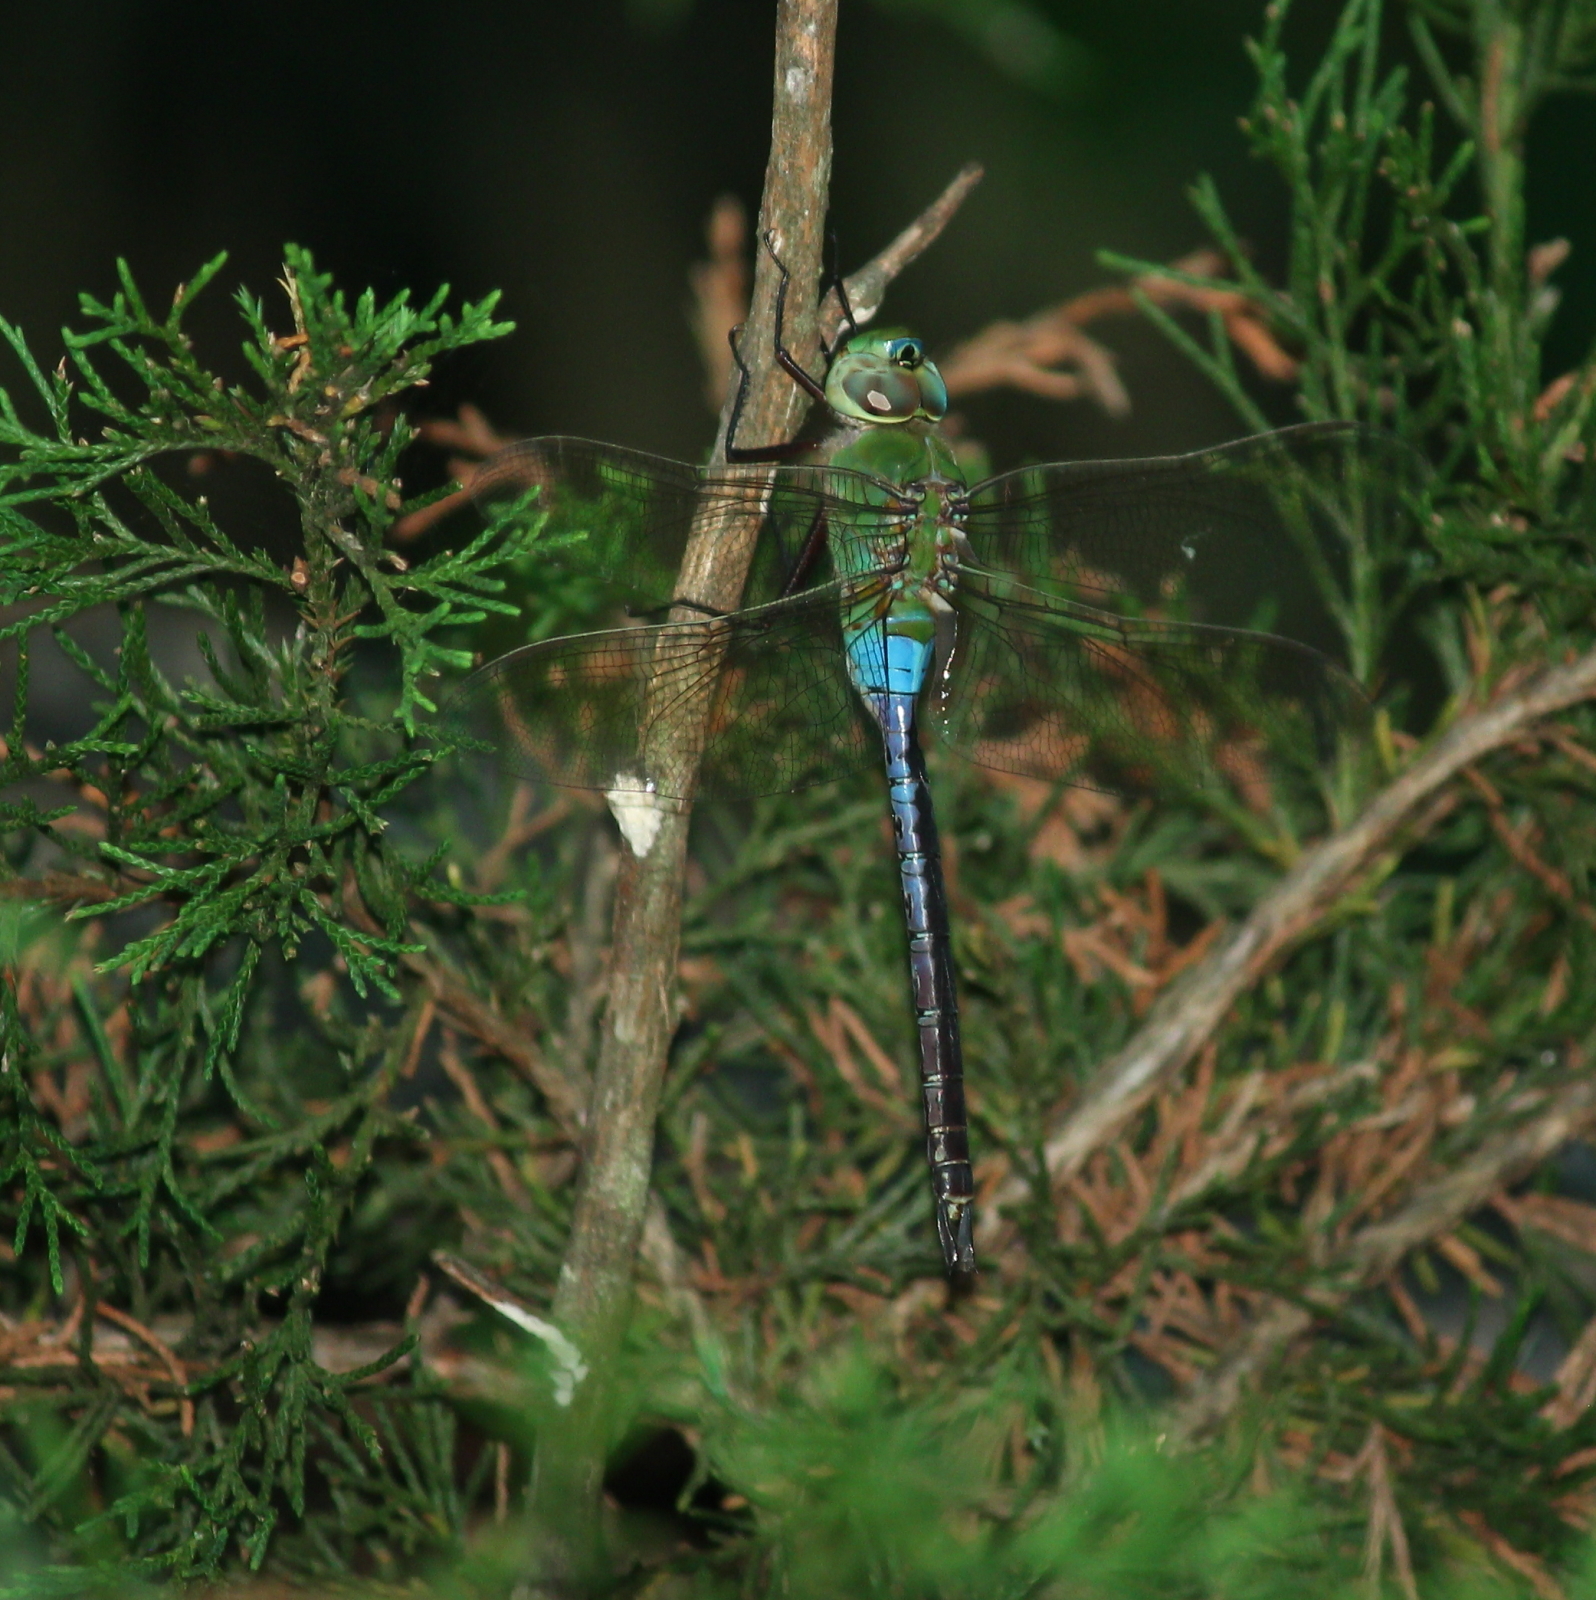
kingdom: Animalia
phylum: Arthropoda
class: Insecta
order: Odonata
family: Aeshnidae
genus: Anax
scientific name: Anax junius
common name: Common green darner
